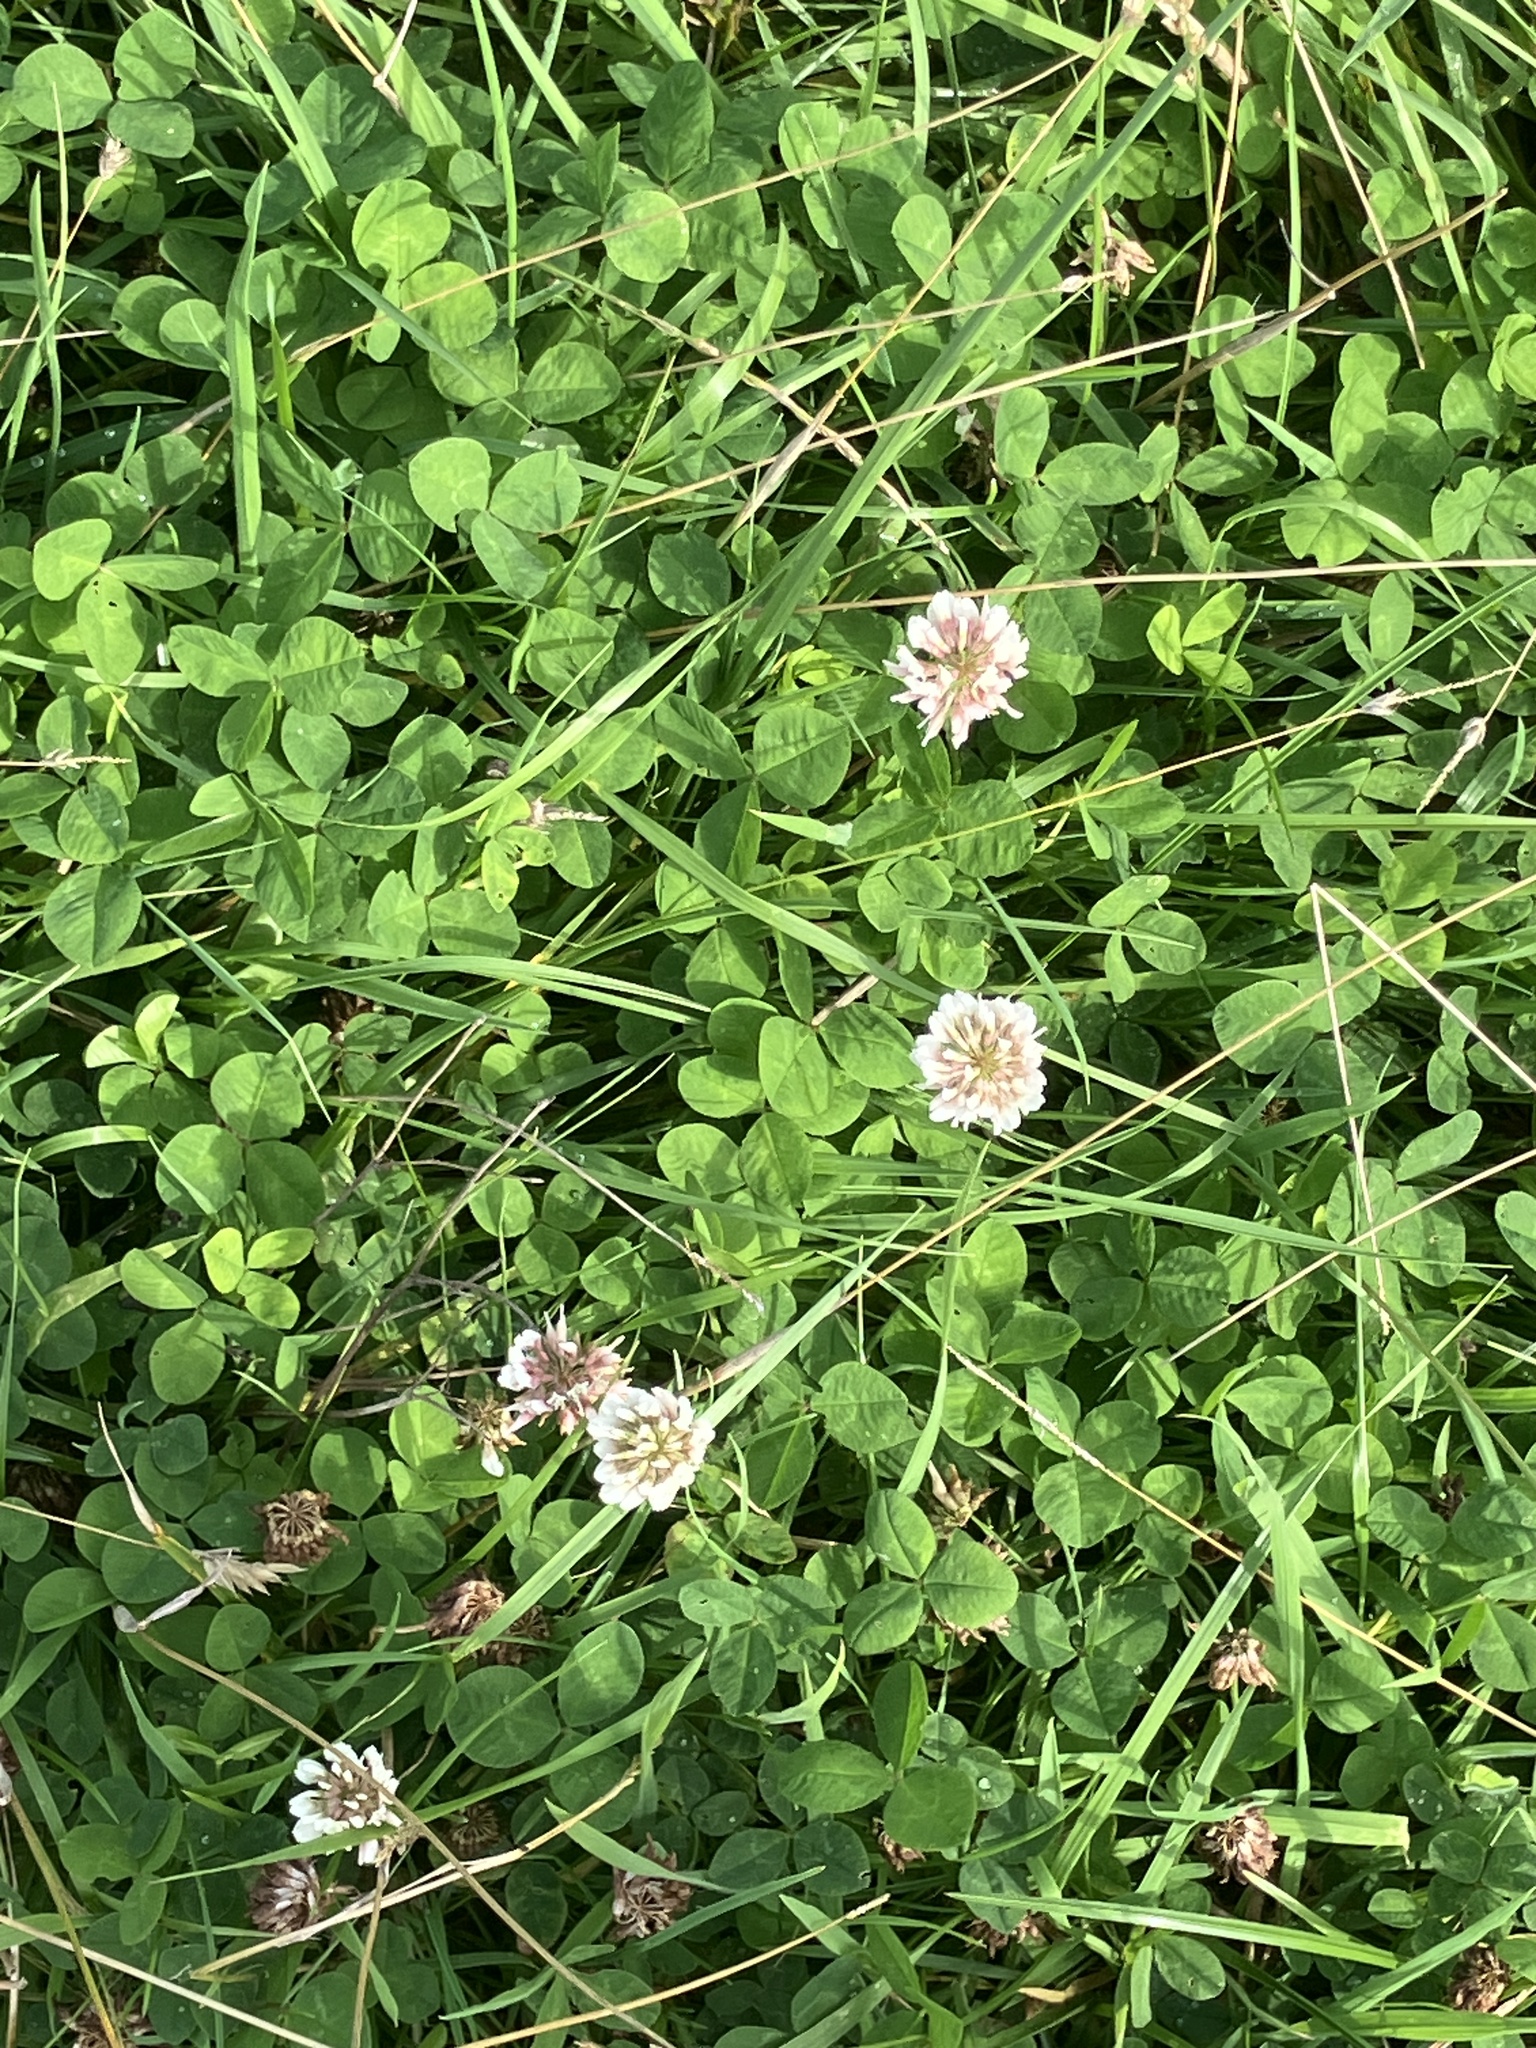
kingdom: Plantae
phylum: Tracheophyta
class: Magnoliopsida
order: Fabales
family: Fabaceae
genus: Trifolium
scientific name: Trifolium repens
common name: White clover
